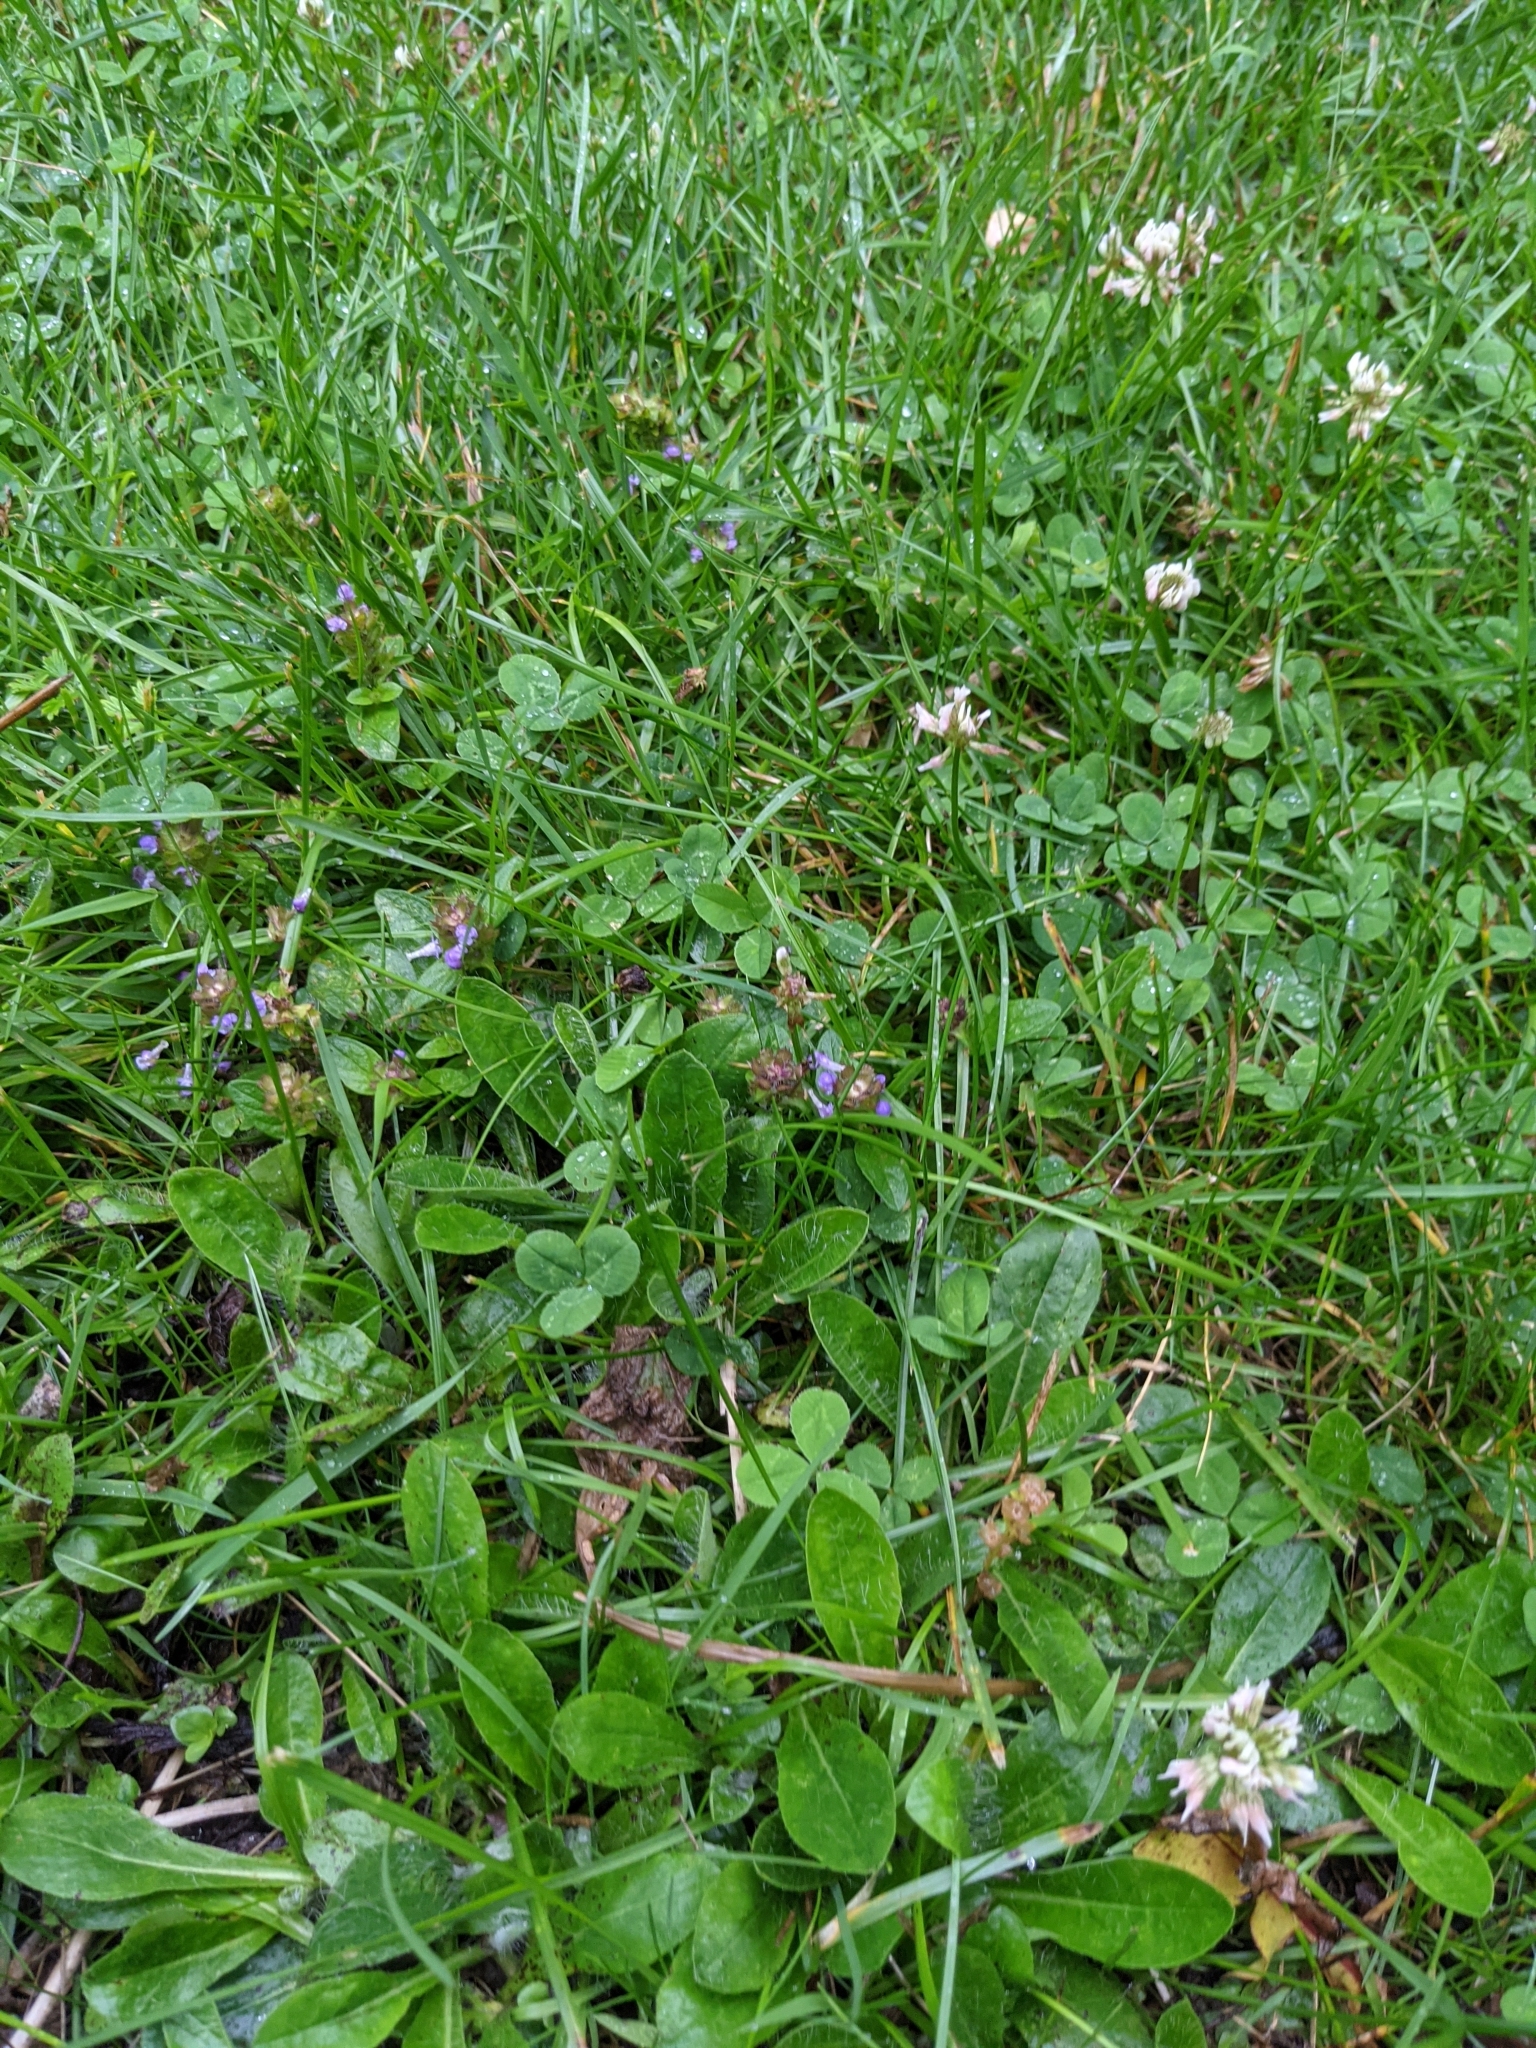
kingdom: Plantae
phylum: Tracheophyta
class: Magnoliopsida
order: Lamiales
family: Lamiaceae
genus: Prunella
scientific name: Prunella vulgaris
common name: Heal-all
